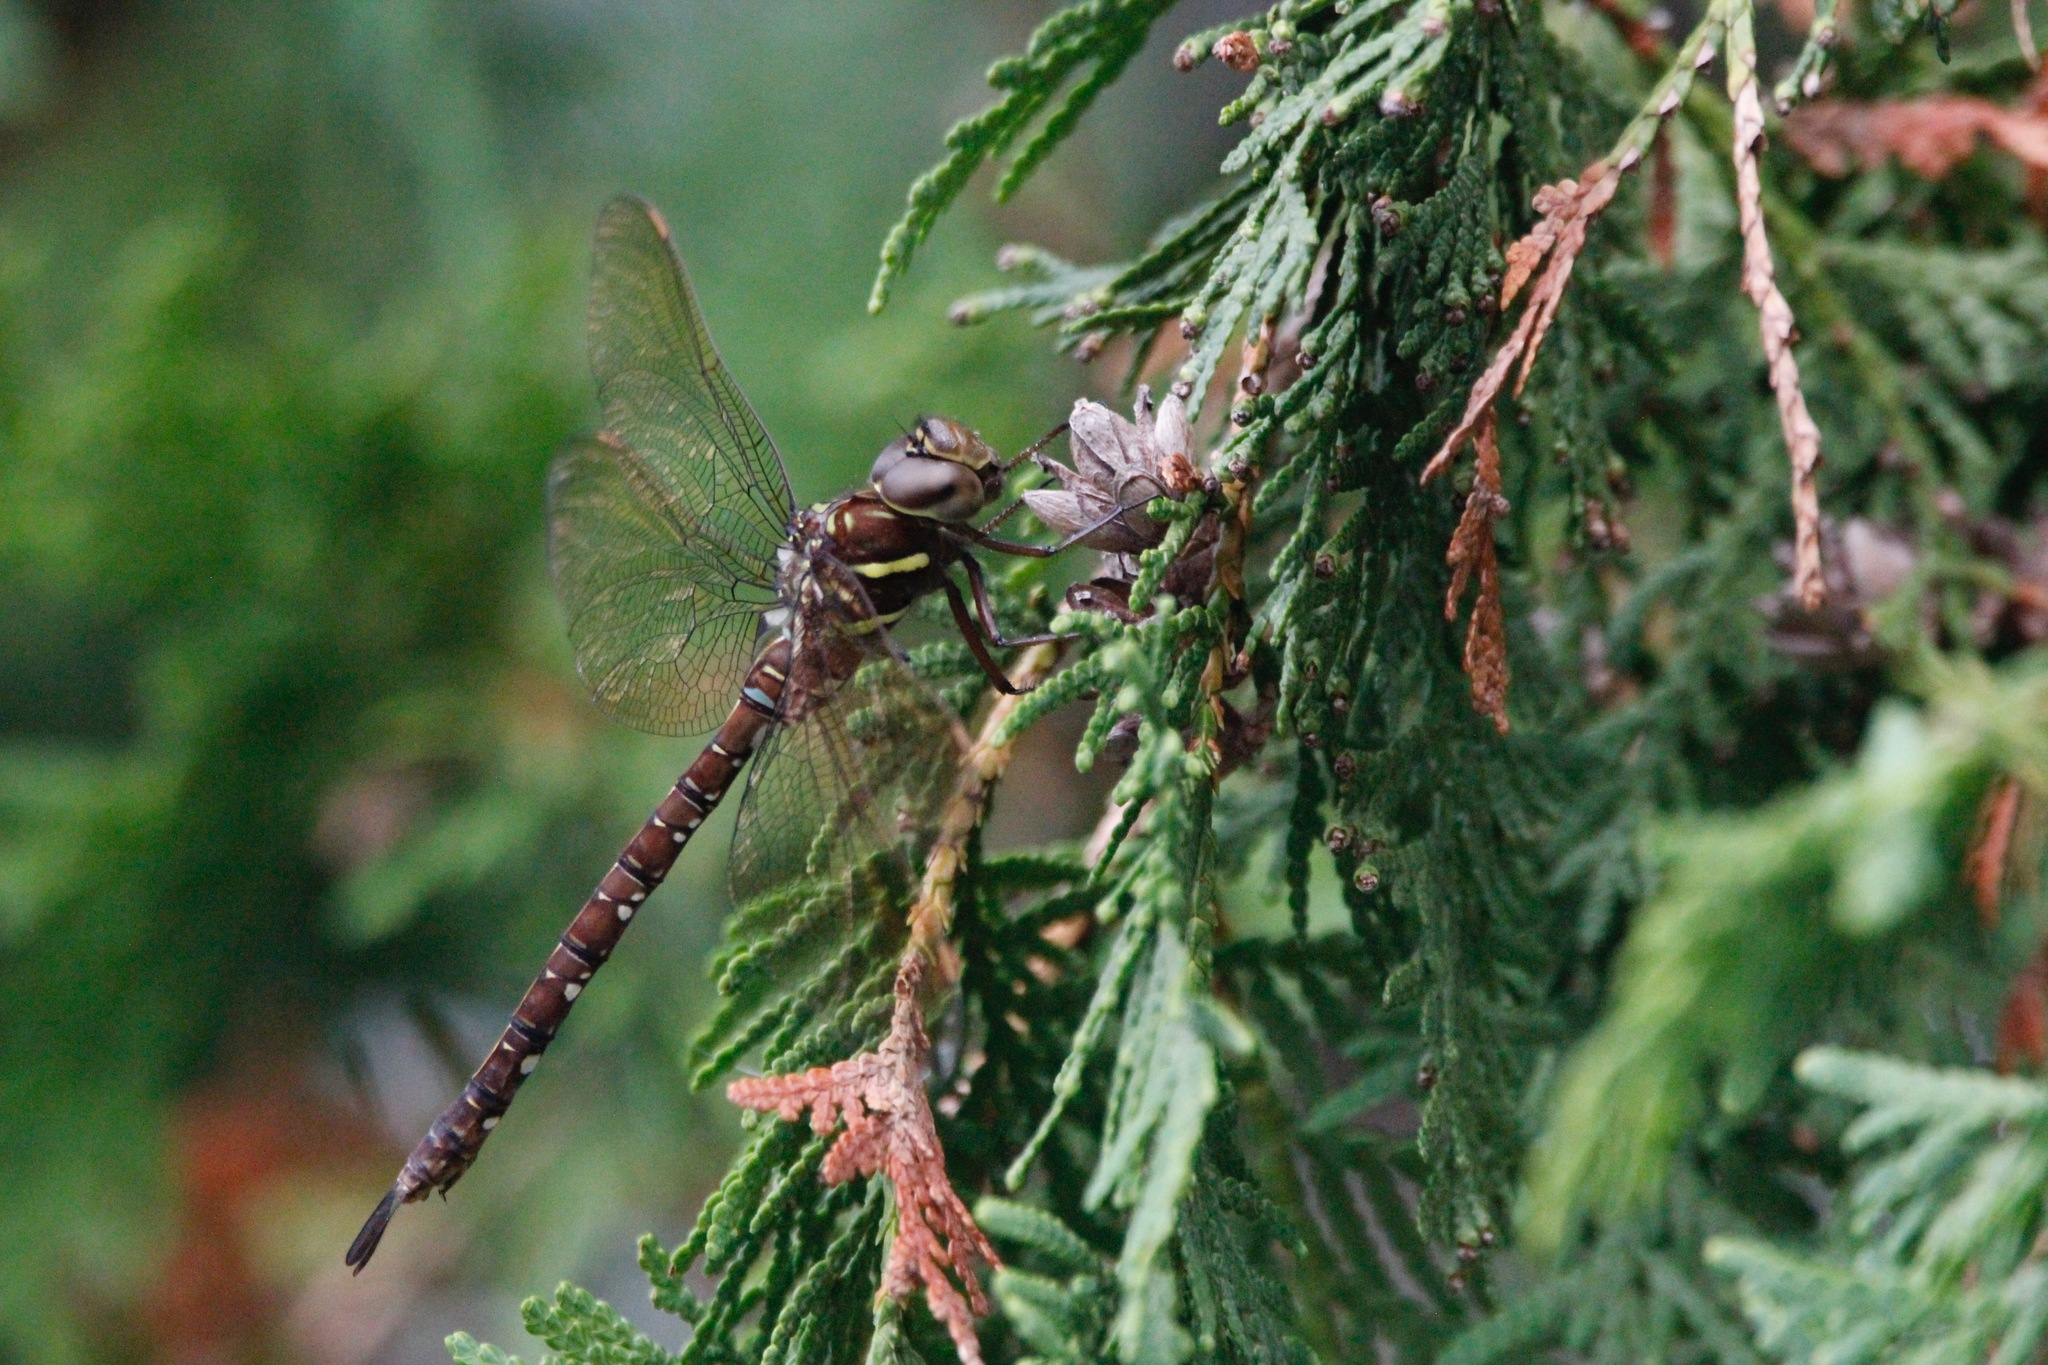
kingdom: Animalia
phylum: Arthropoda
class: Insecta
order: Odonata
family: Aeshnidae
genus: Aeshna
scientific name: Aeshna umbrosa
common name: Shadow darner
